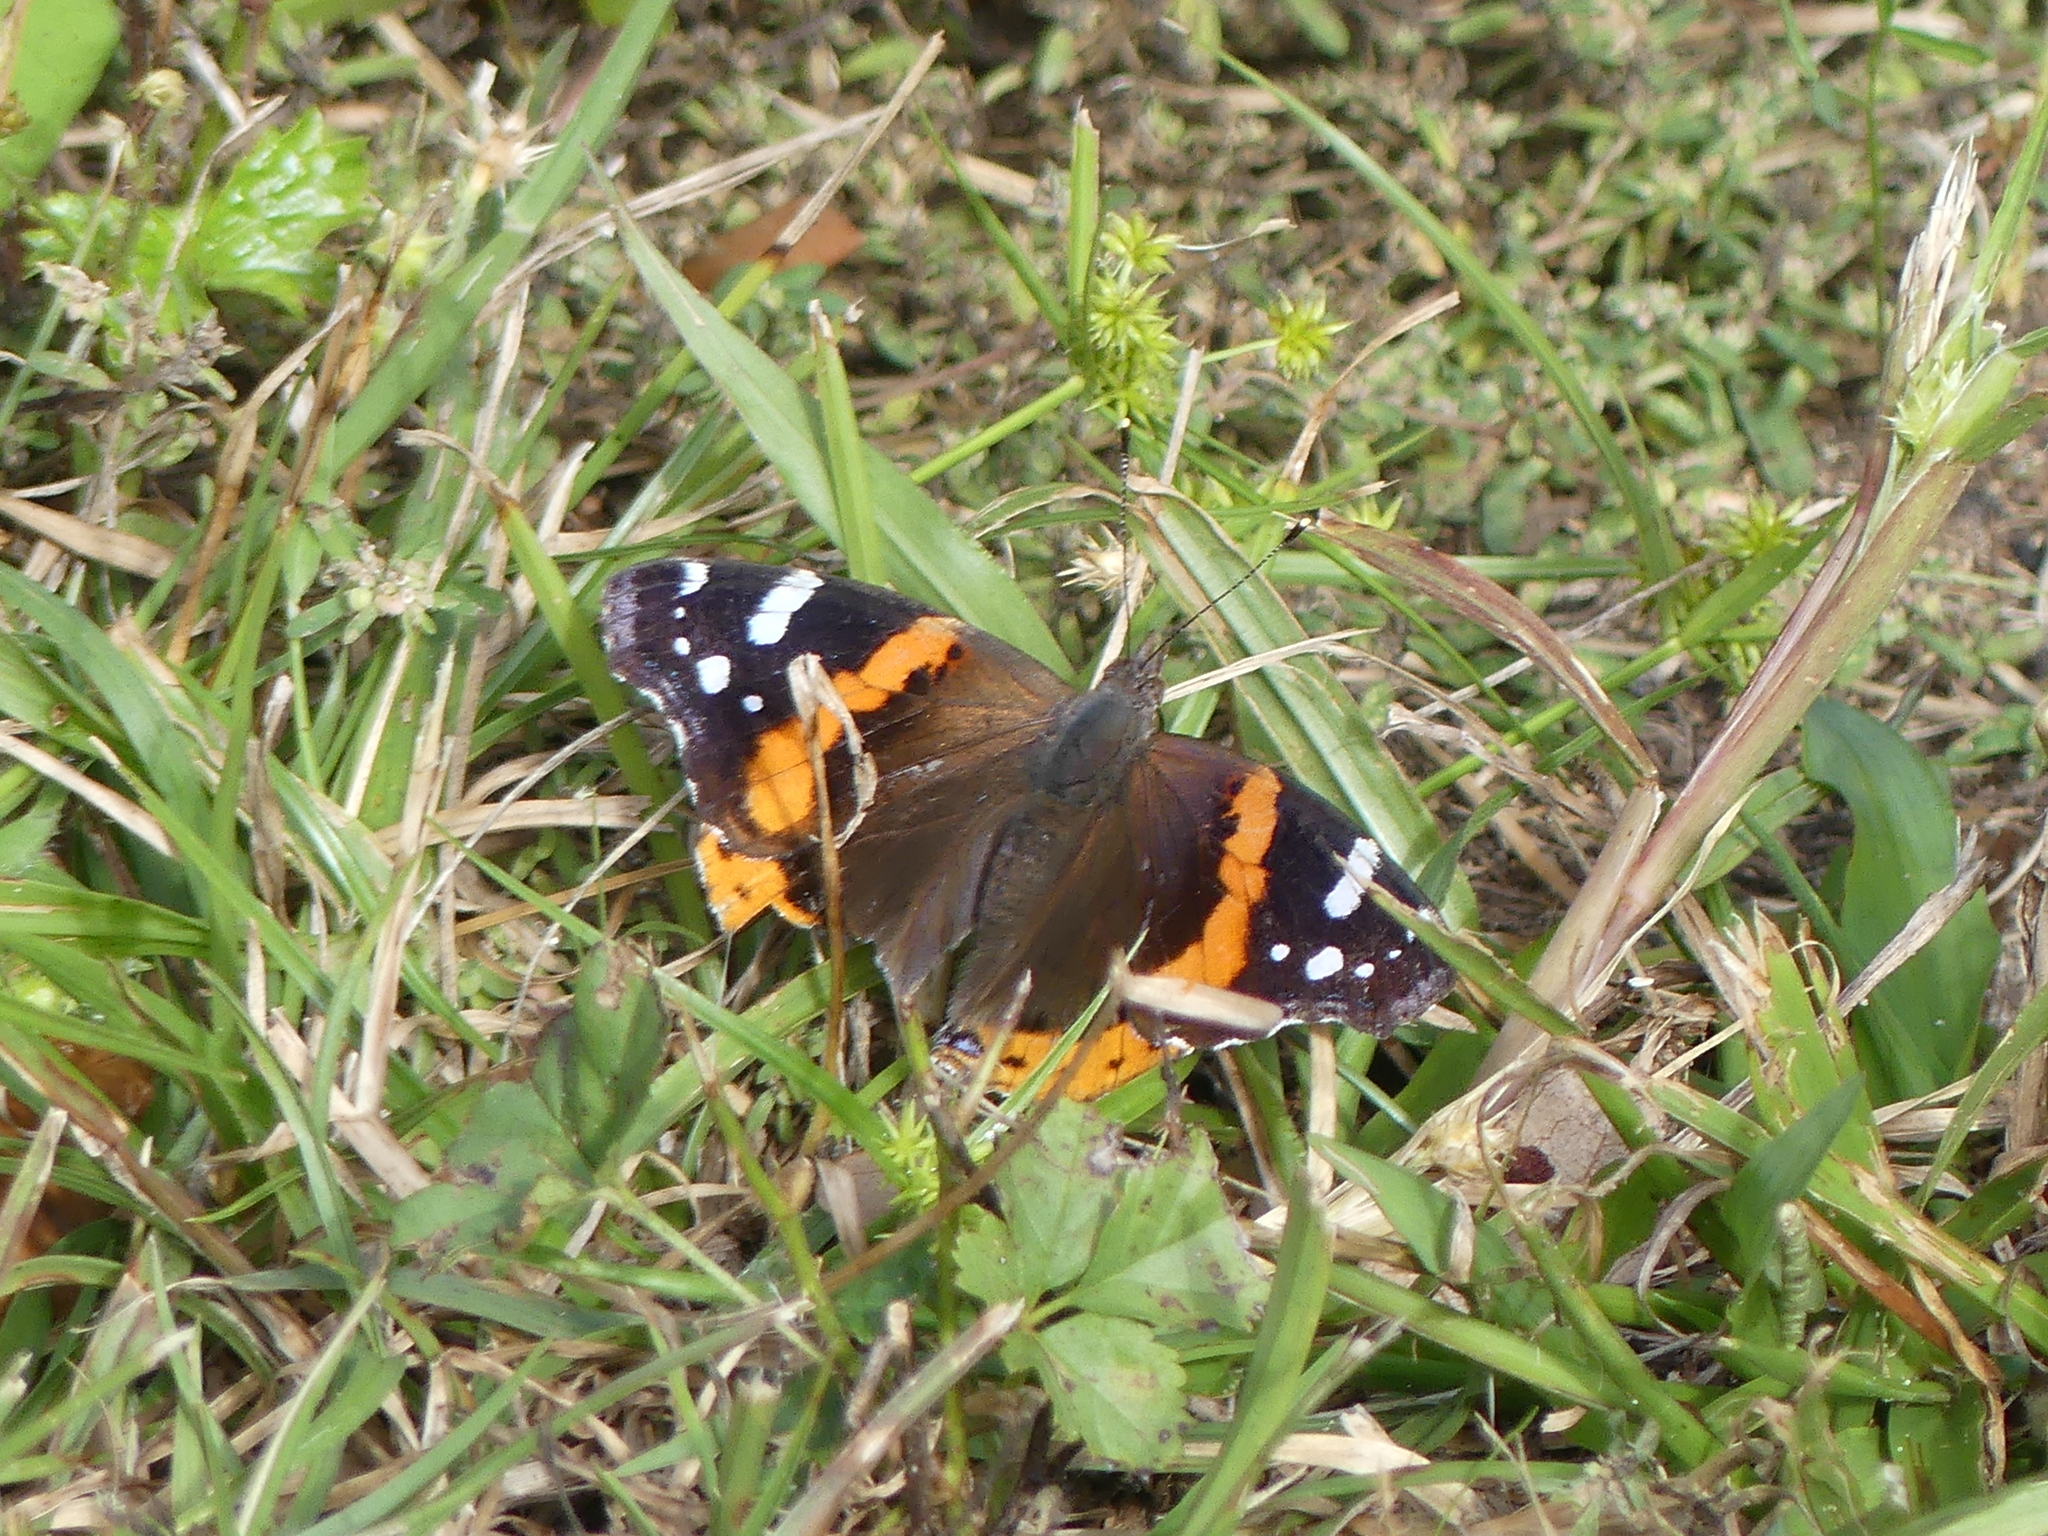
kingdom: Animalia
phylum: Arthropoda
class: Insecta
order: Lepidoptera
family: Nymphalidae
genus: Vanessa
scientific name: Vanessa atalanta
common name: Red admiral
